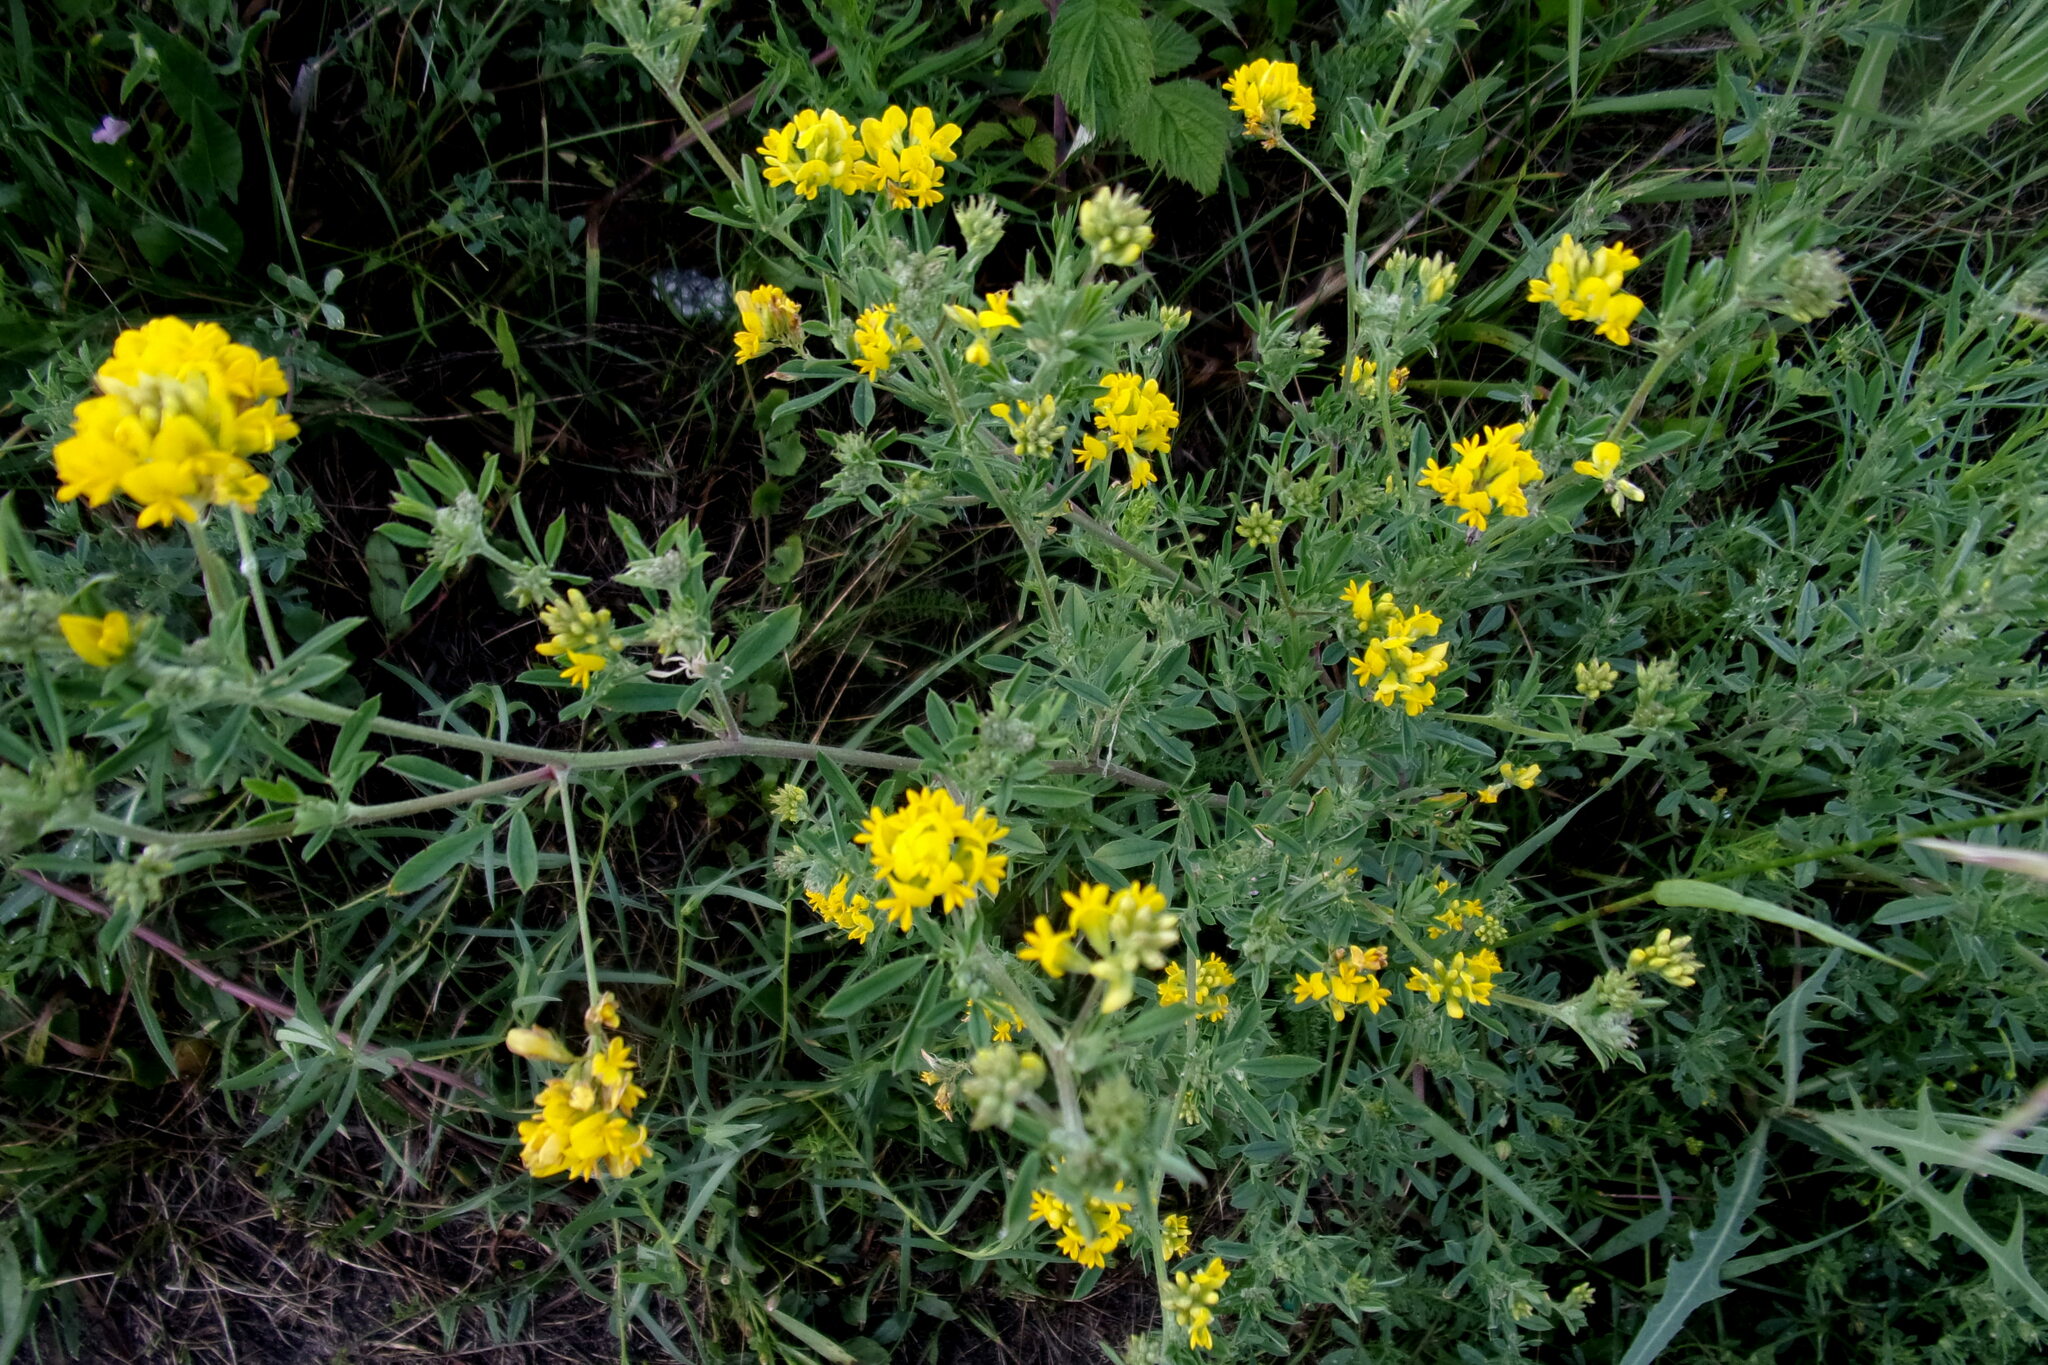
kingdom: Plantae
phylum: Tracheophyta
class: Magnoliopsida
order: Fabales
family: Fabaceae
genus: Medicago
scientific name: Medicago falcata
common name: Sickle medick
